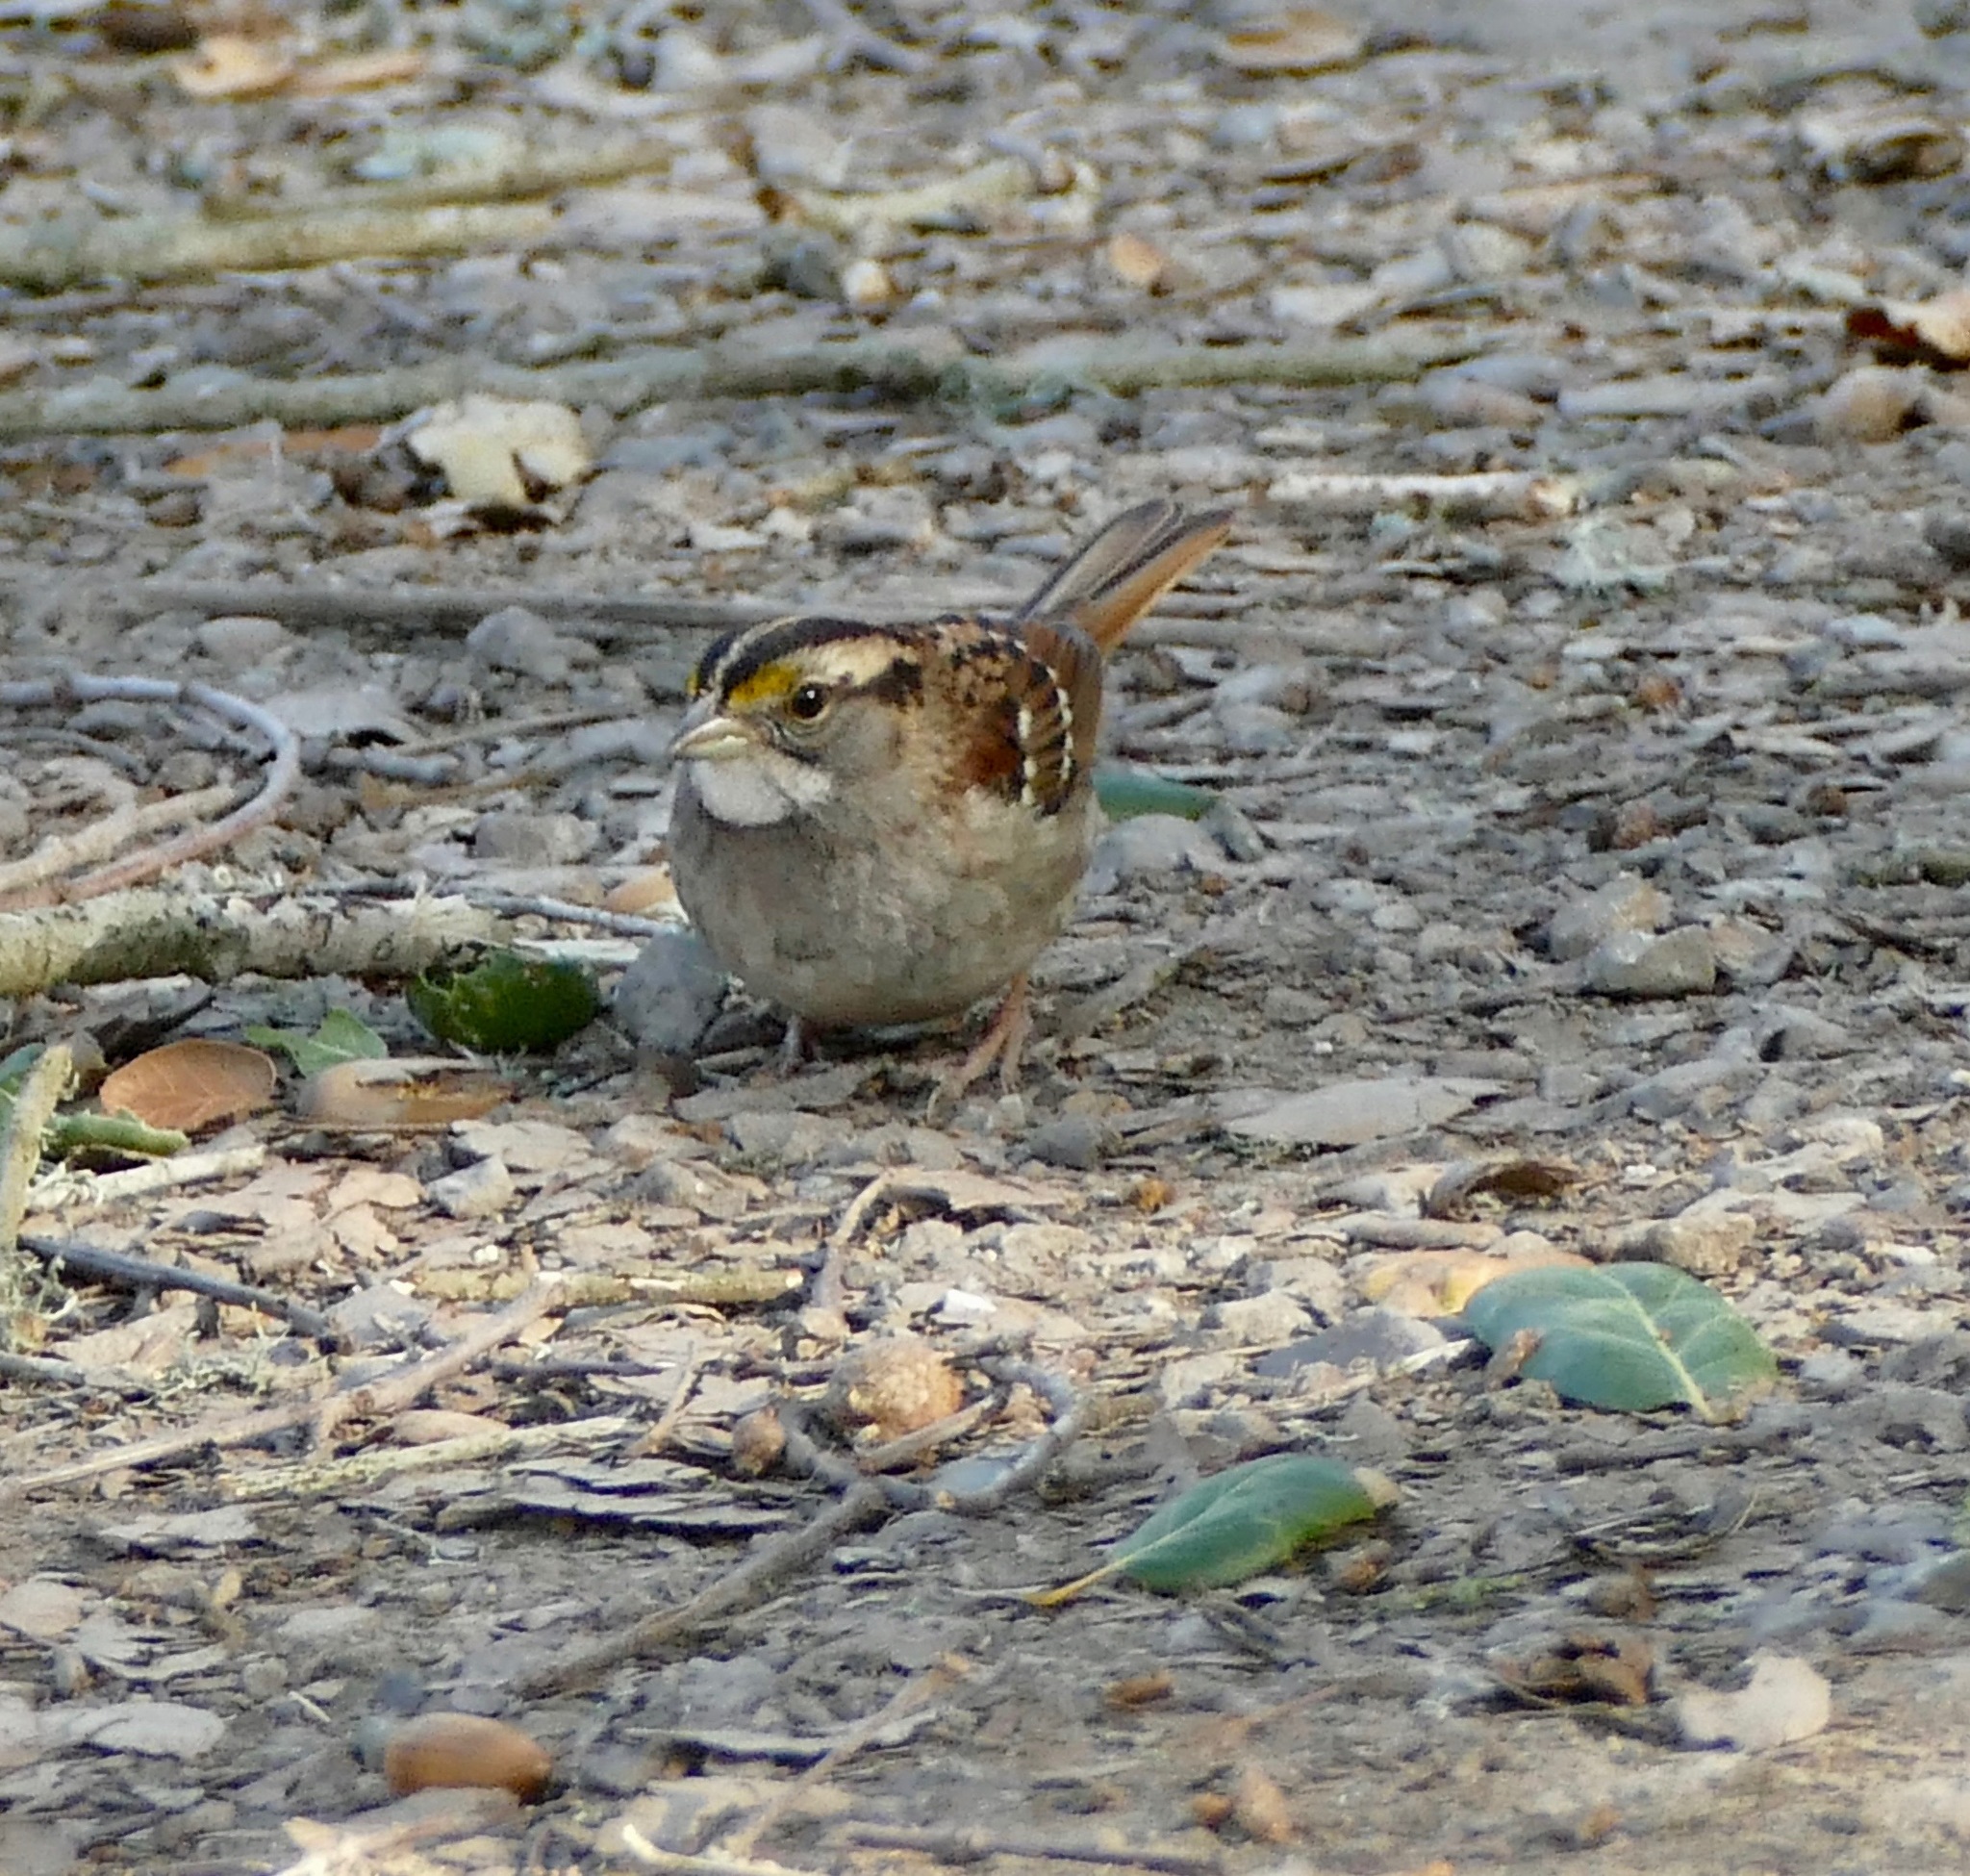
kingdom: Animalia
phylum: Chordata
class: Aves
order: Passeriformes
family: Passerellidae
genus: Zonotrichia
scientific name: Zonotrichia albicollis
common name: White-throated sparrow
